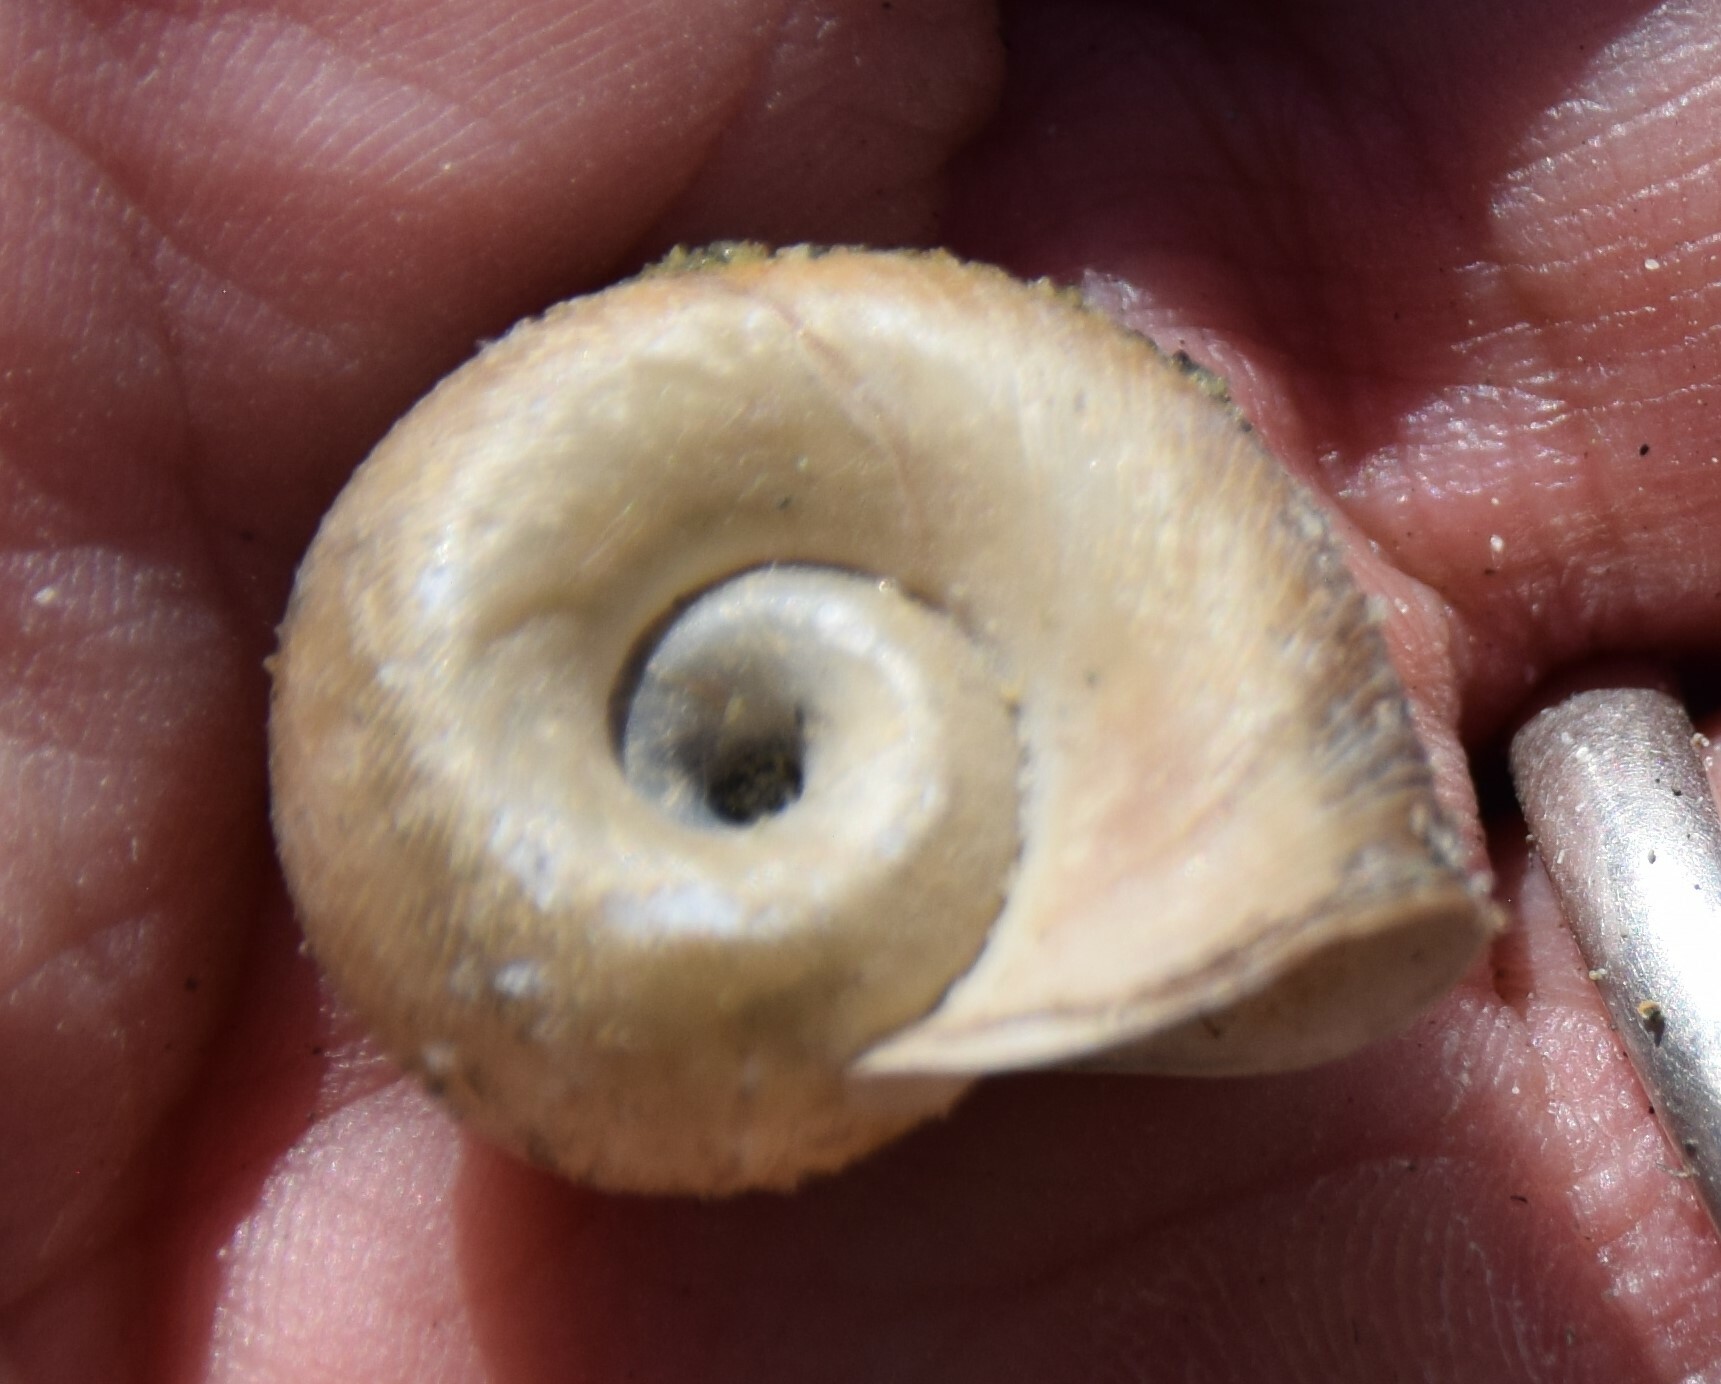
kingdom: Animalia
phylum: Mollusca
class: Gastropoda
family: Planorbidae
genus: Planorbella
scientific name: Planorbella trivolvis
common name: Marsh rams-horn
